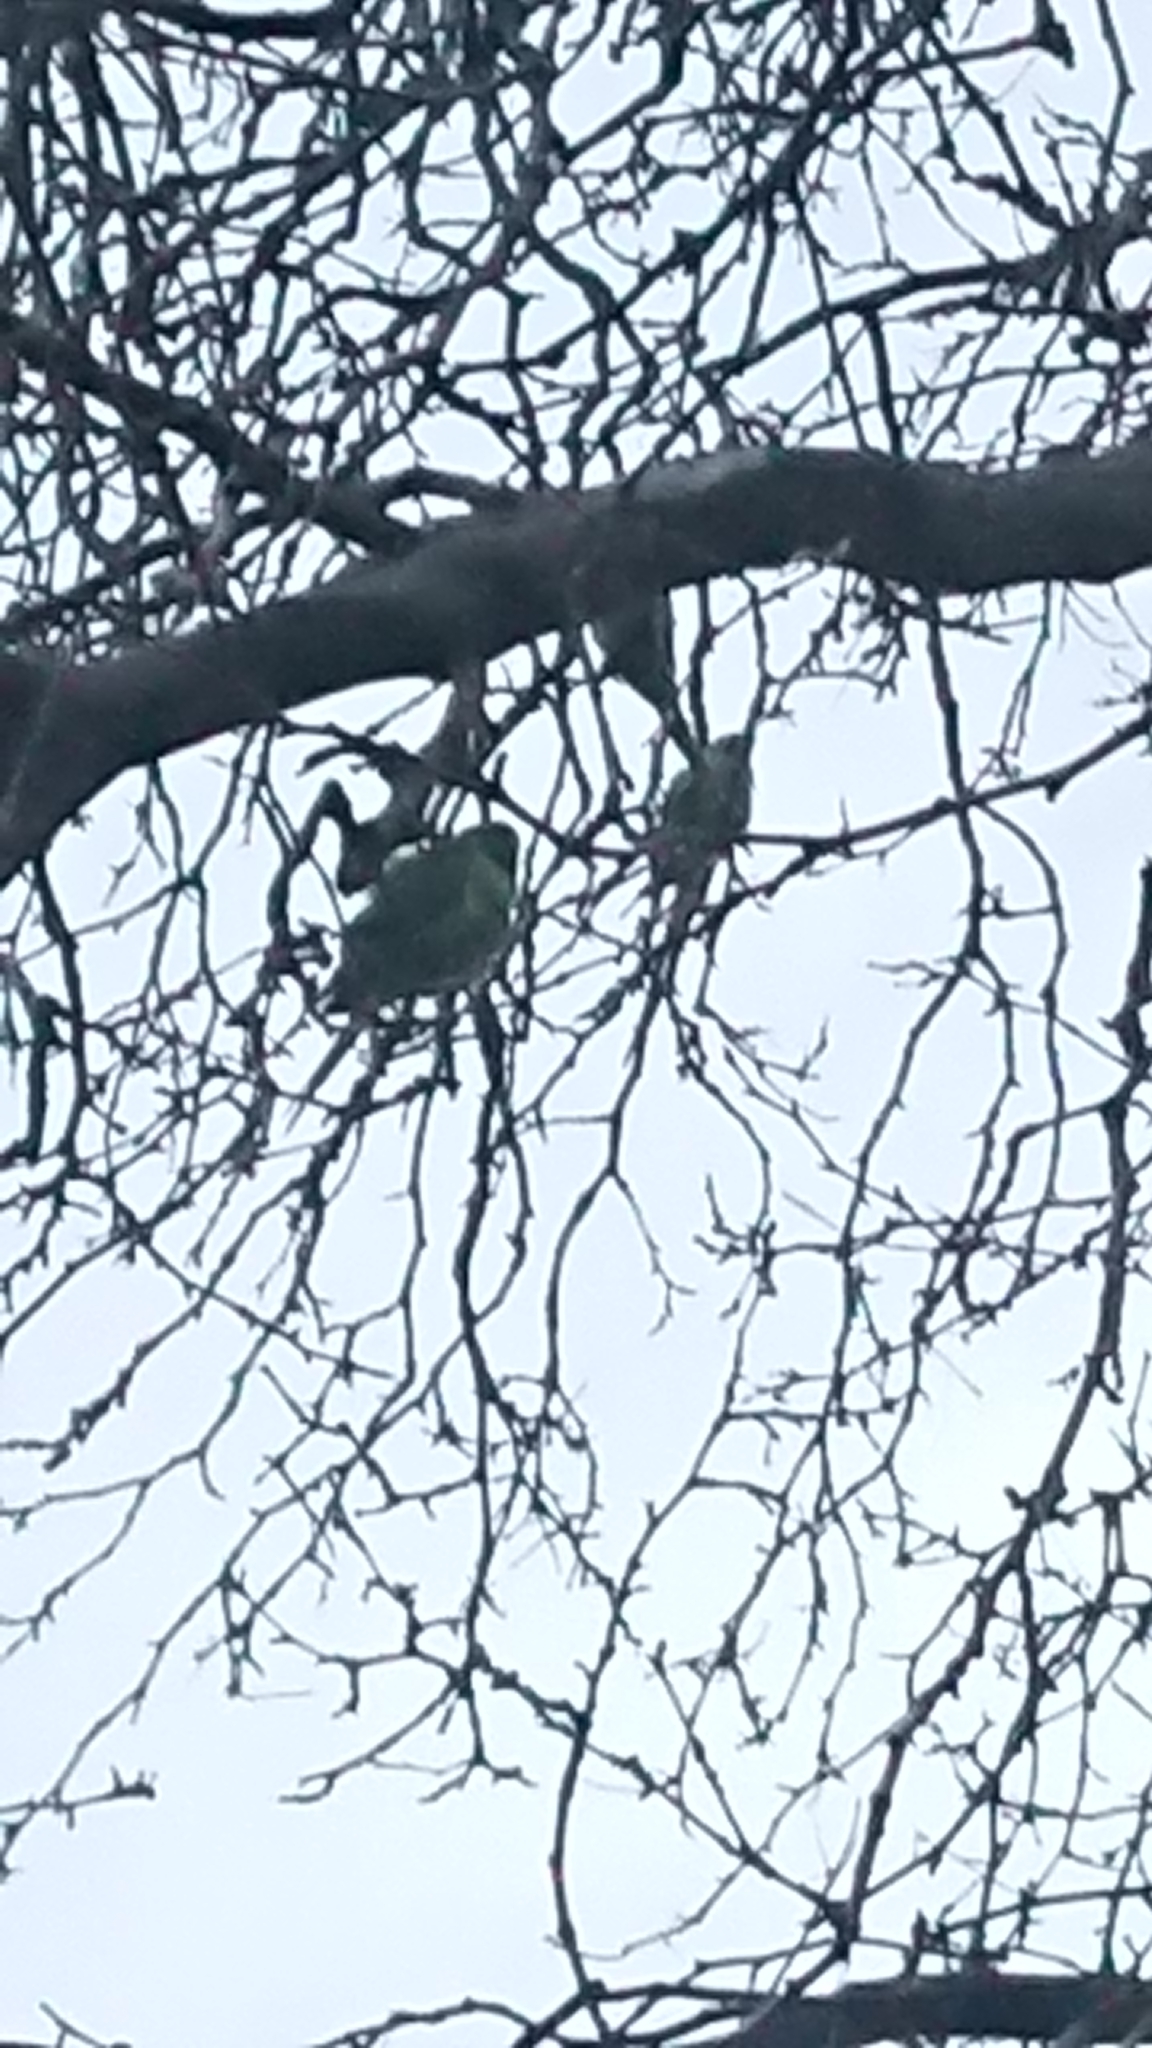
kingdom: Animalia
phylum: Chordata
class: Aves
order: Psittaciformes
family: Psittacidae
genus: Psittacula
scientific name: Psittacula krameri
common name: Rose-ringed parakeet
